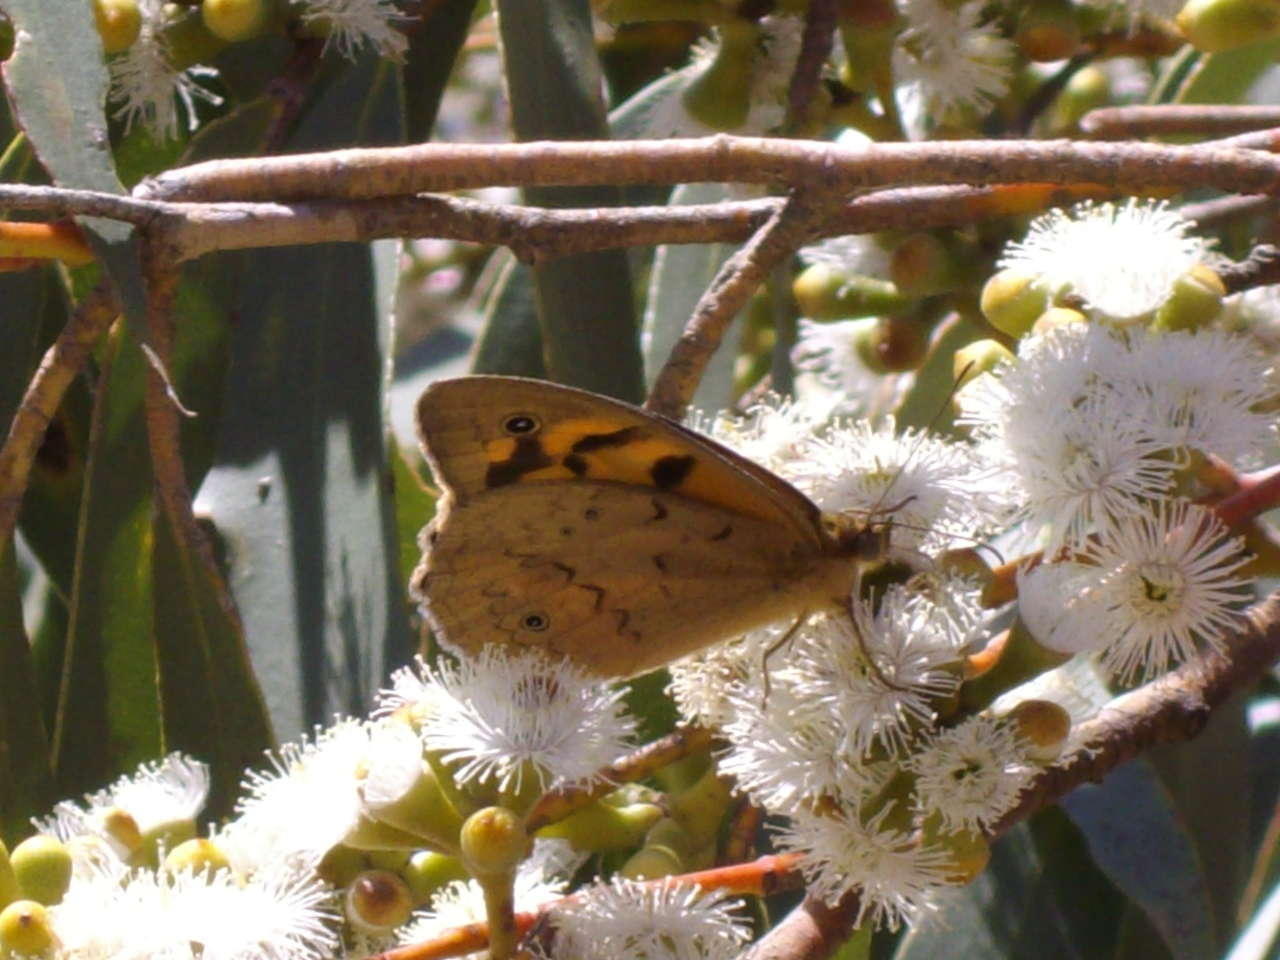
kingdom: Animalia
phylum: Arthropoda
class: Insecta
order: Lepidoptera
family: Nymphalidae
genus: Heteronympha
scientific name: Heteronympha merope
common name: Common brown
